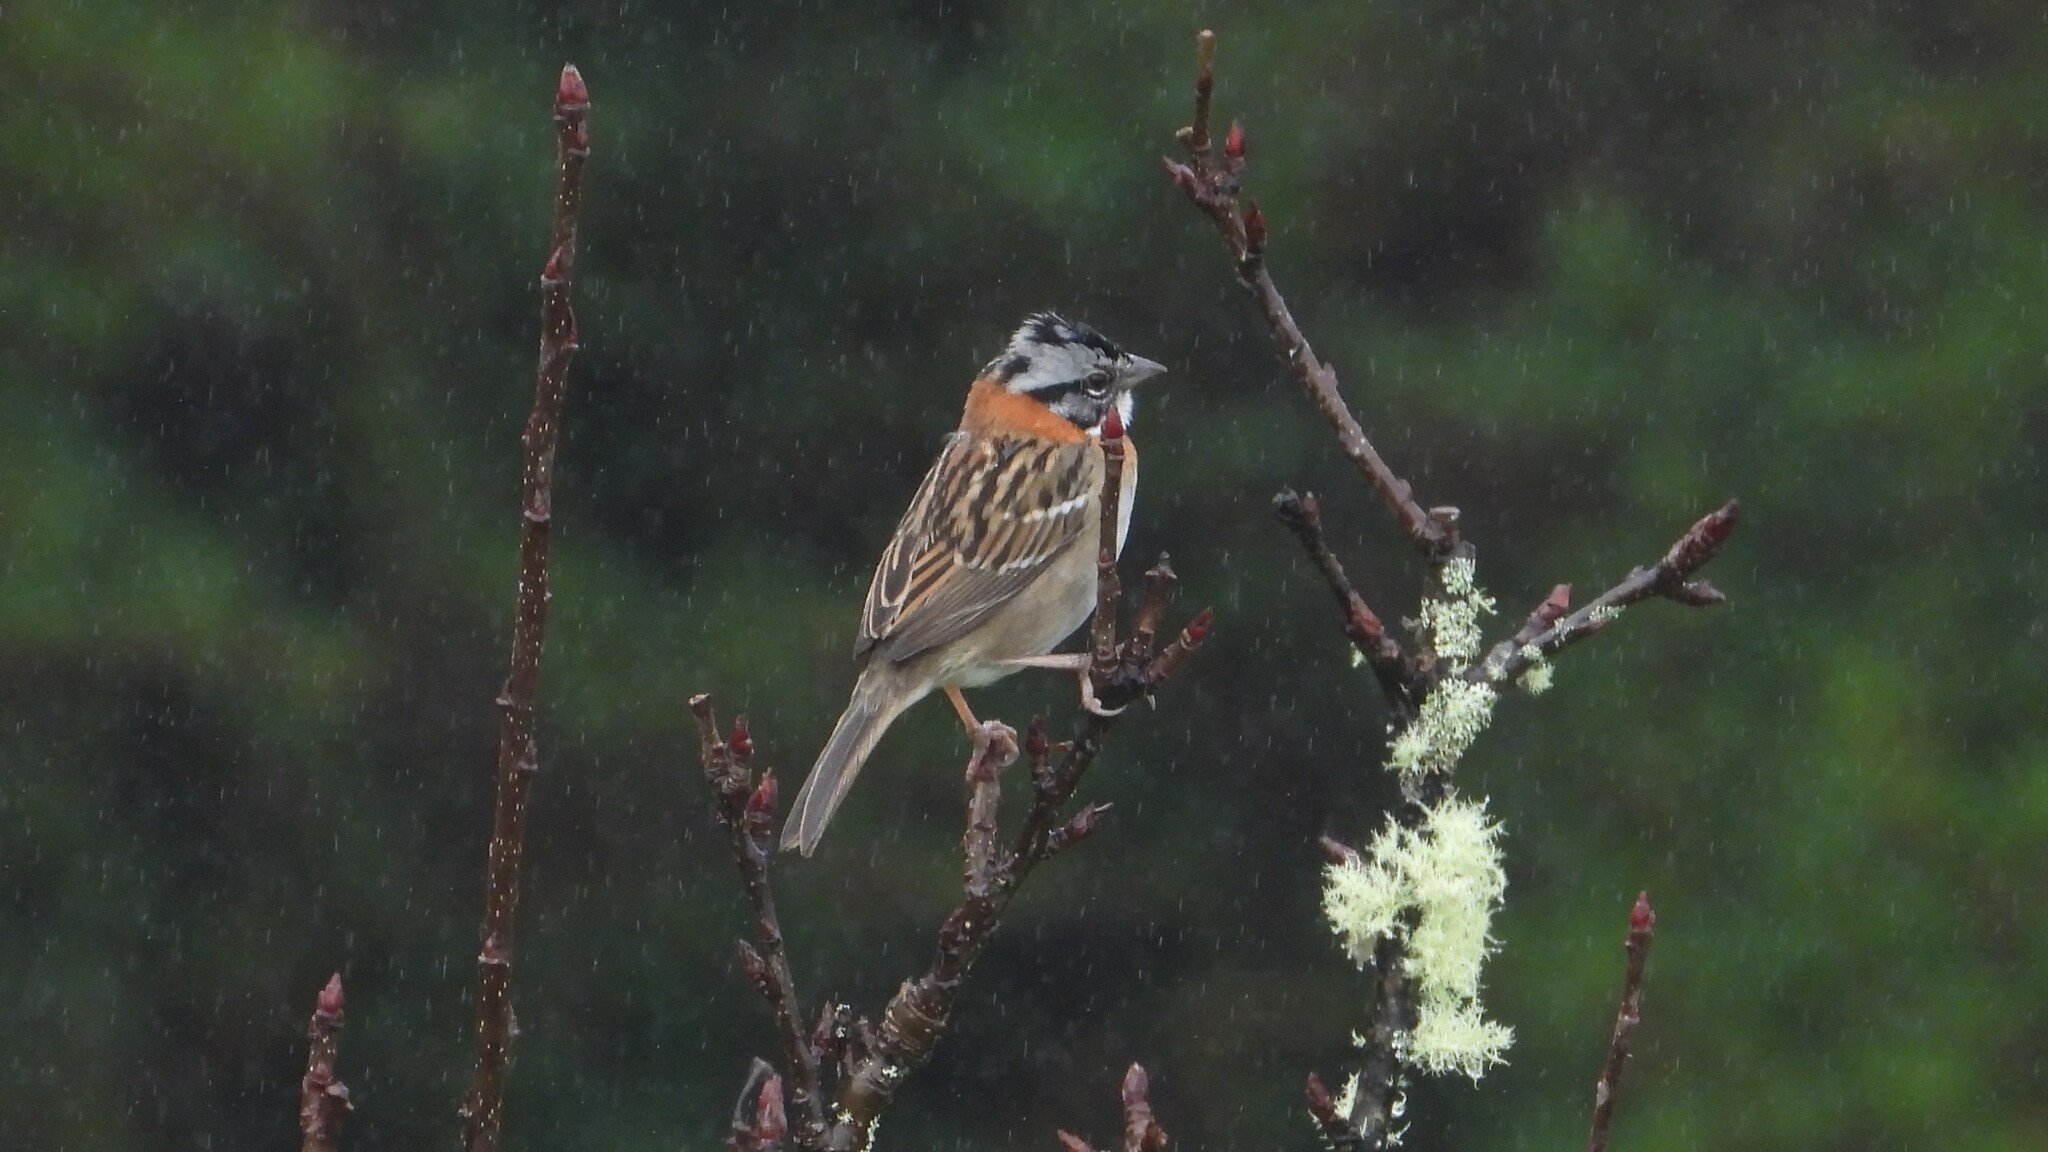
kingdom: Animalia
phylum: Chordata
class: Aves
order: Passeriformes
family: Passerellidae
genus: Zonotrichia
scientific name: Zonotrichia capensis
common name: Rufous-collared sparrow
